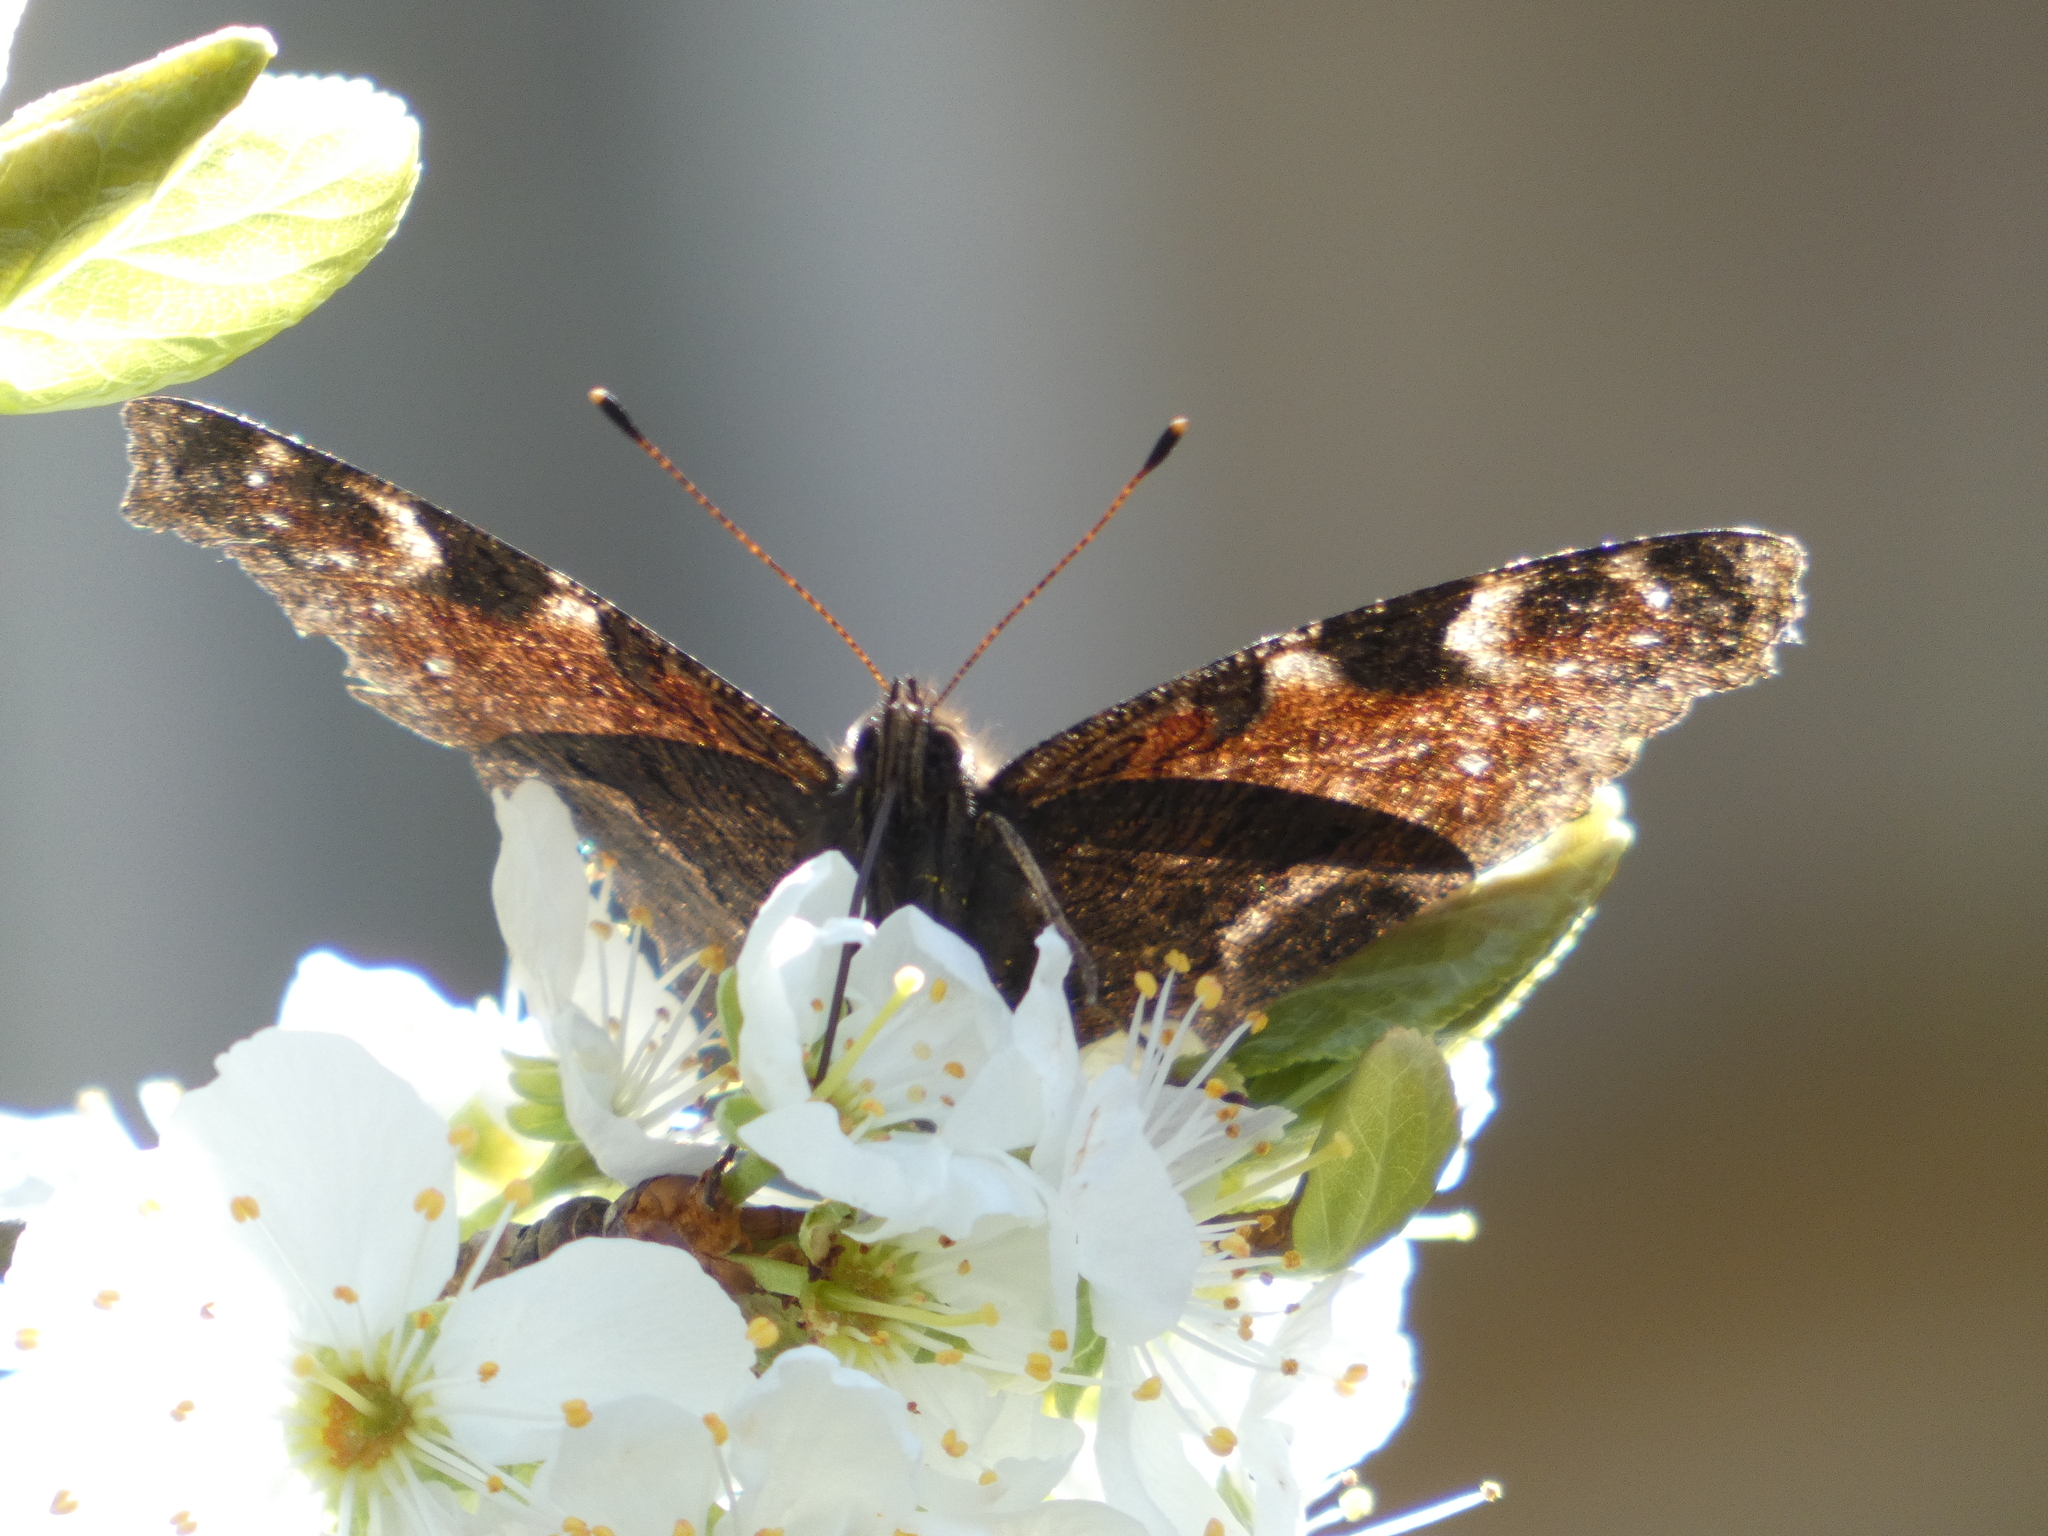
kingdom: Animalia
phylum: Arthropoda
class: Insecta
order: Lepidoptera
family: Nymphalidae
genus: Aglais
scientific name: Aglais io
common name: Peacock
